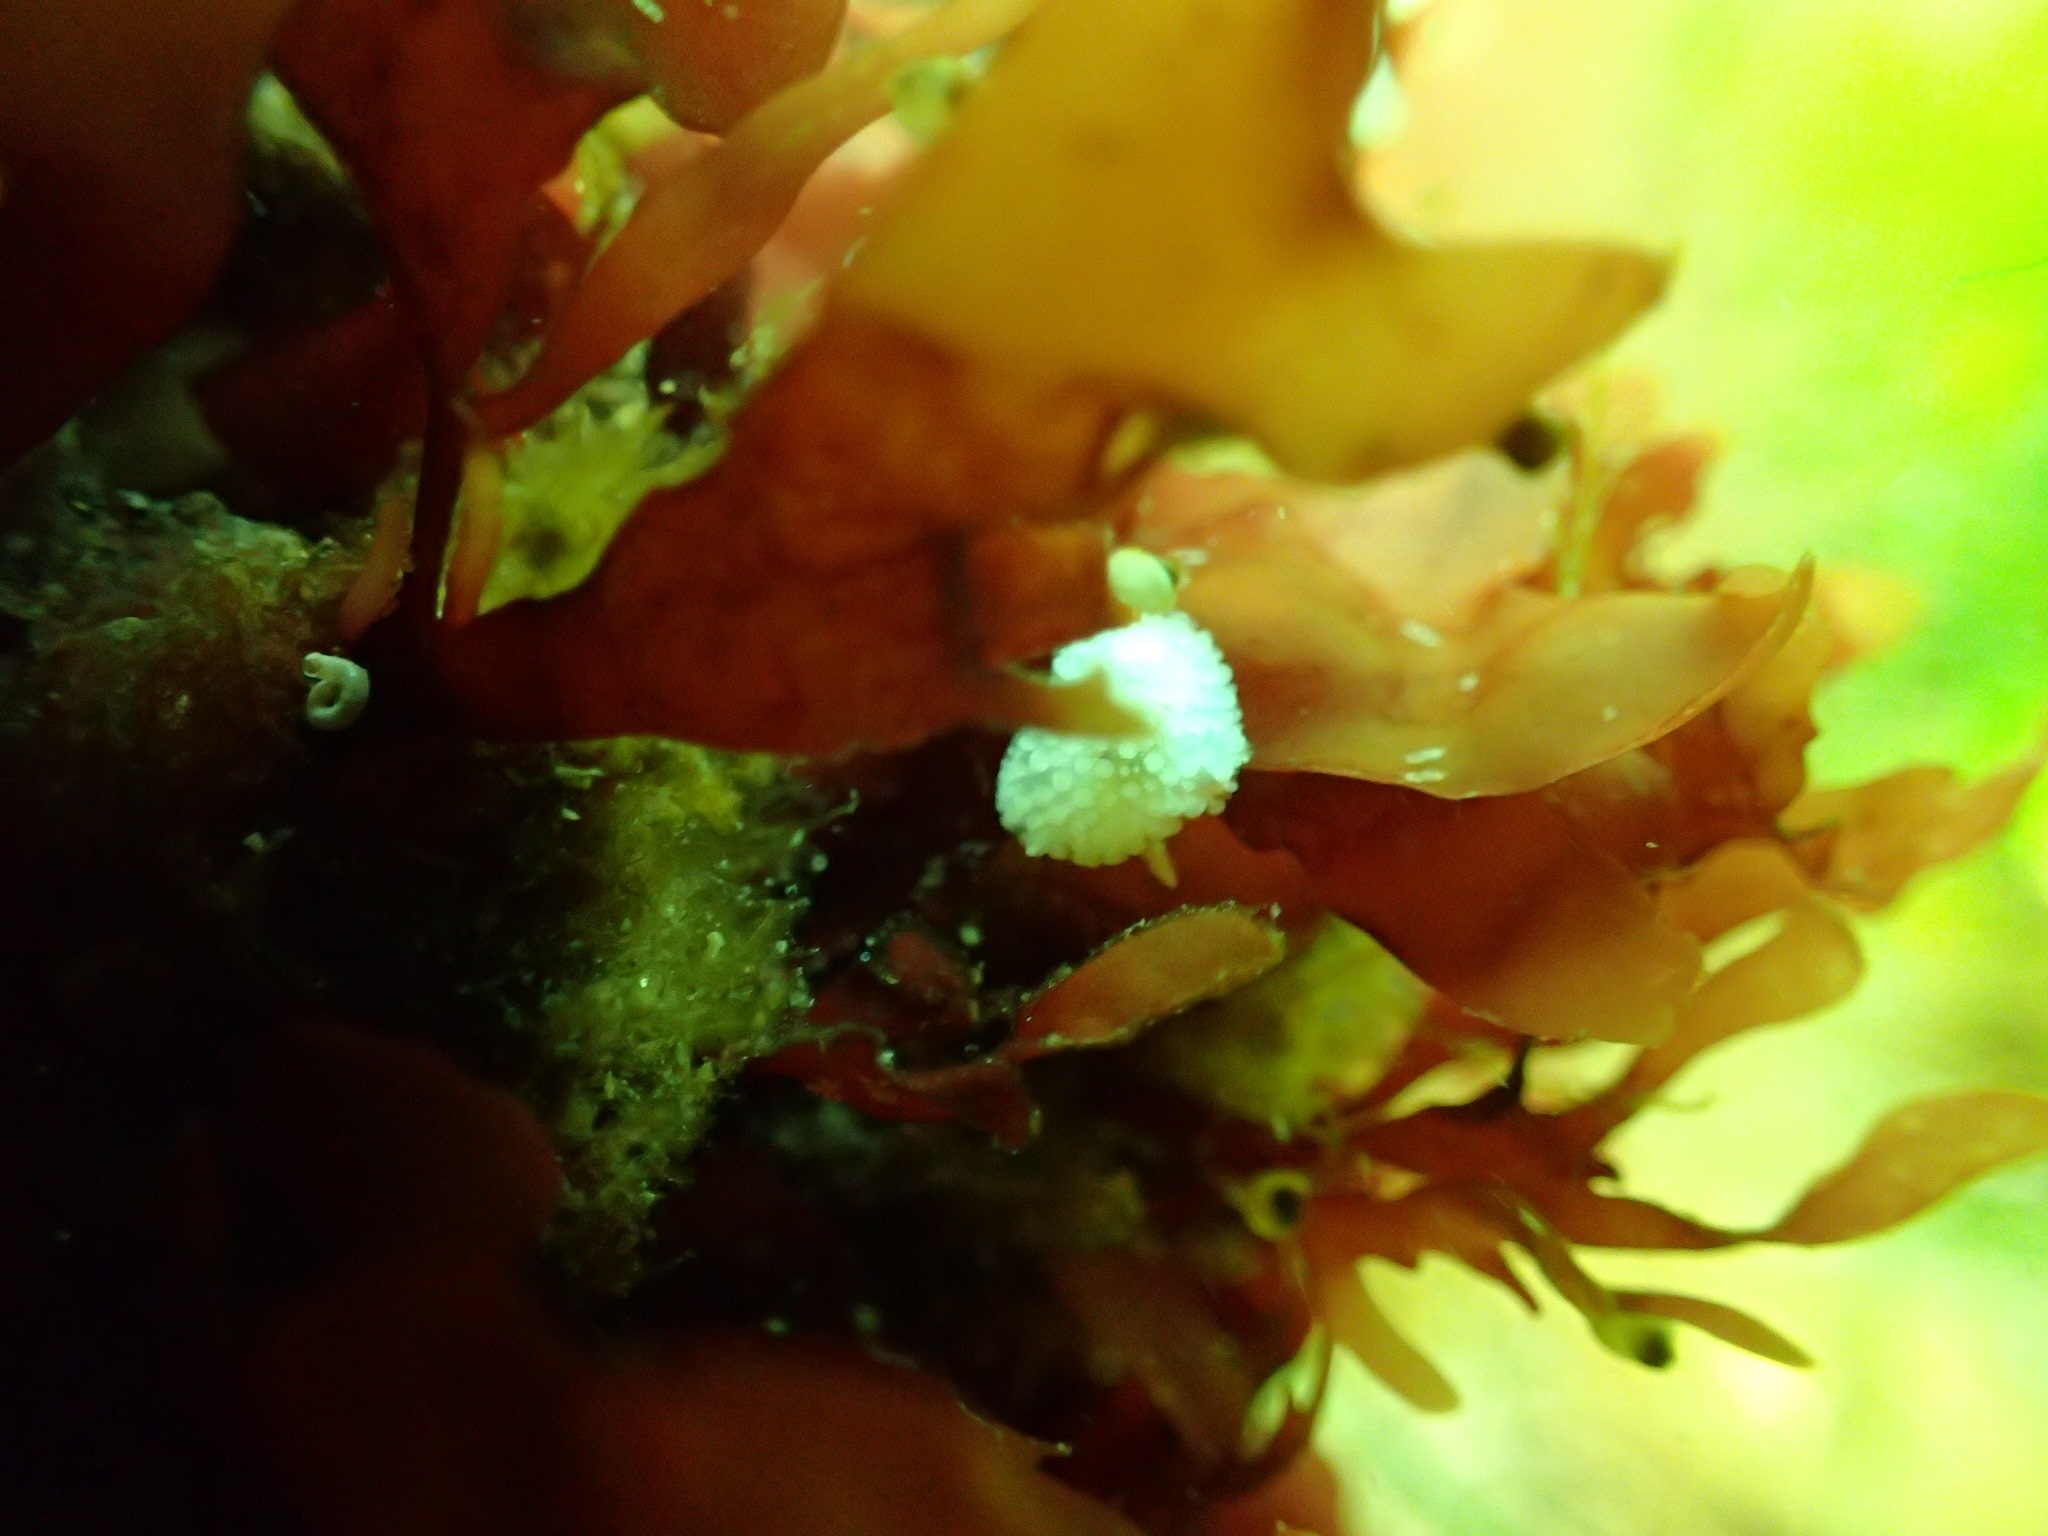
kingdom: Animalia
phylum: Mollusca
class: Gastropoda
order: Nudibranchia
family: Onchidorididae
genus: Onchidoris
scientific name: Onchidoris muricata
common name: Rough doris
